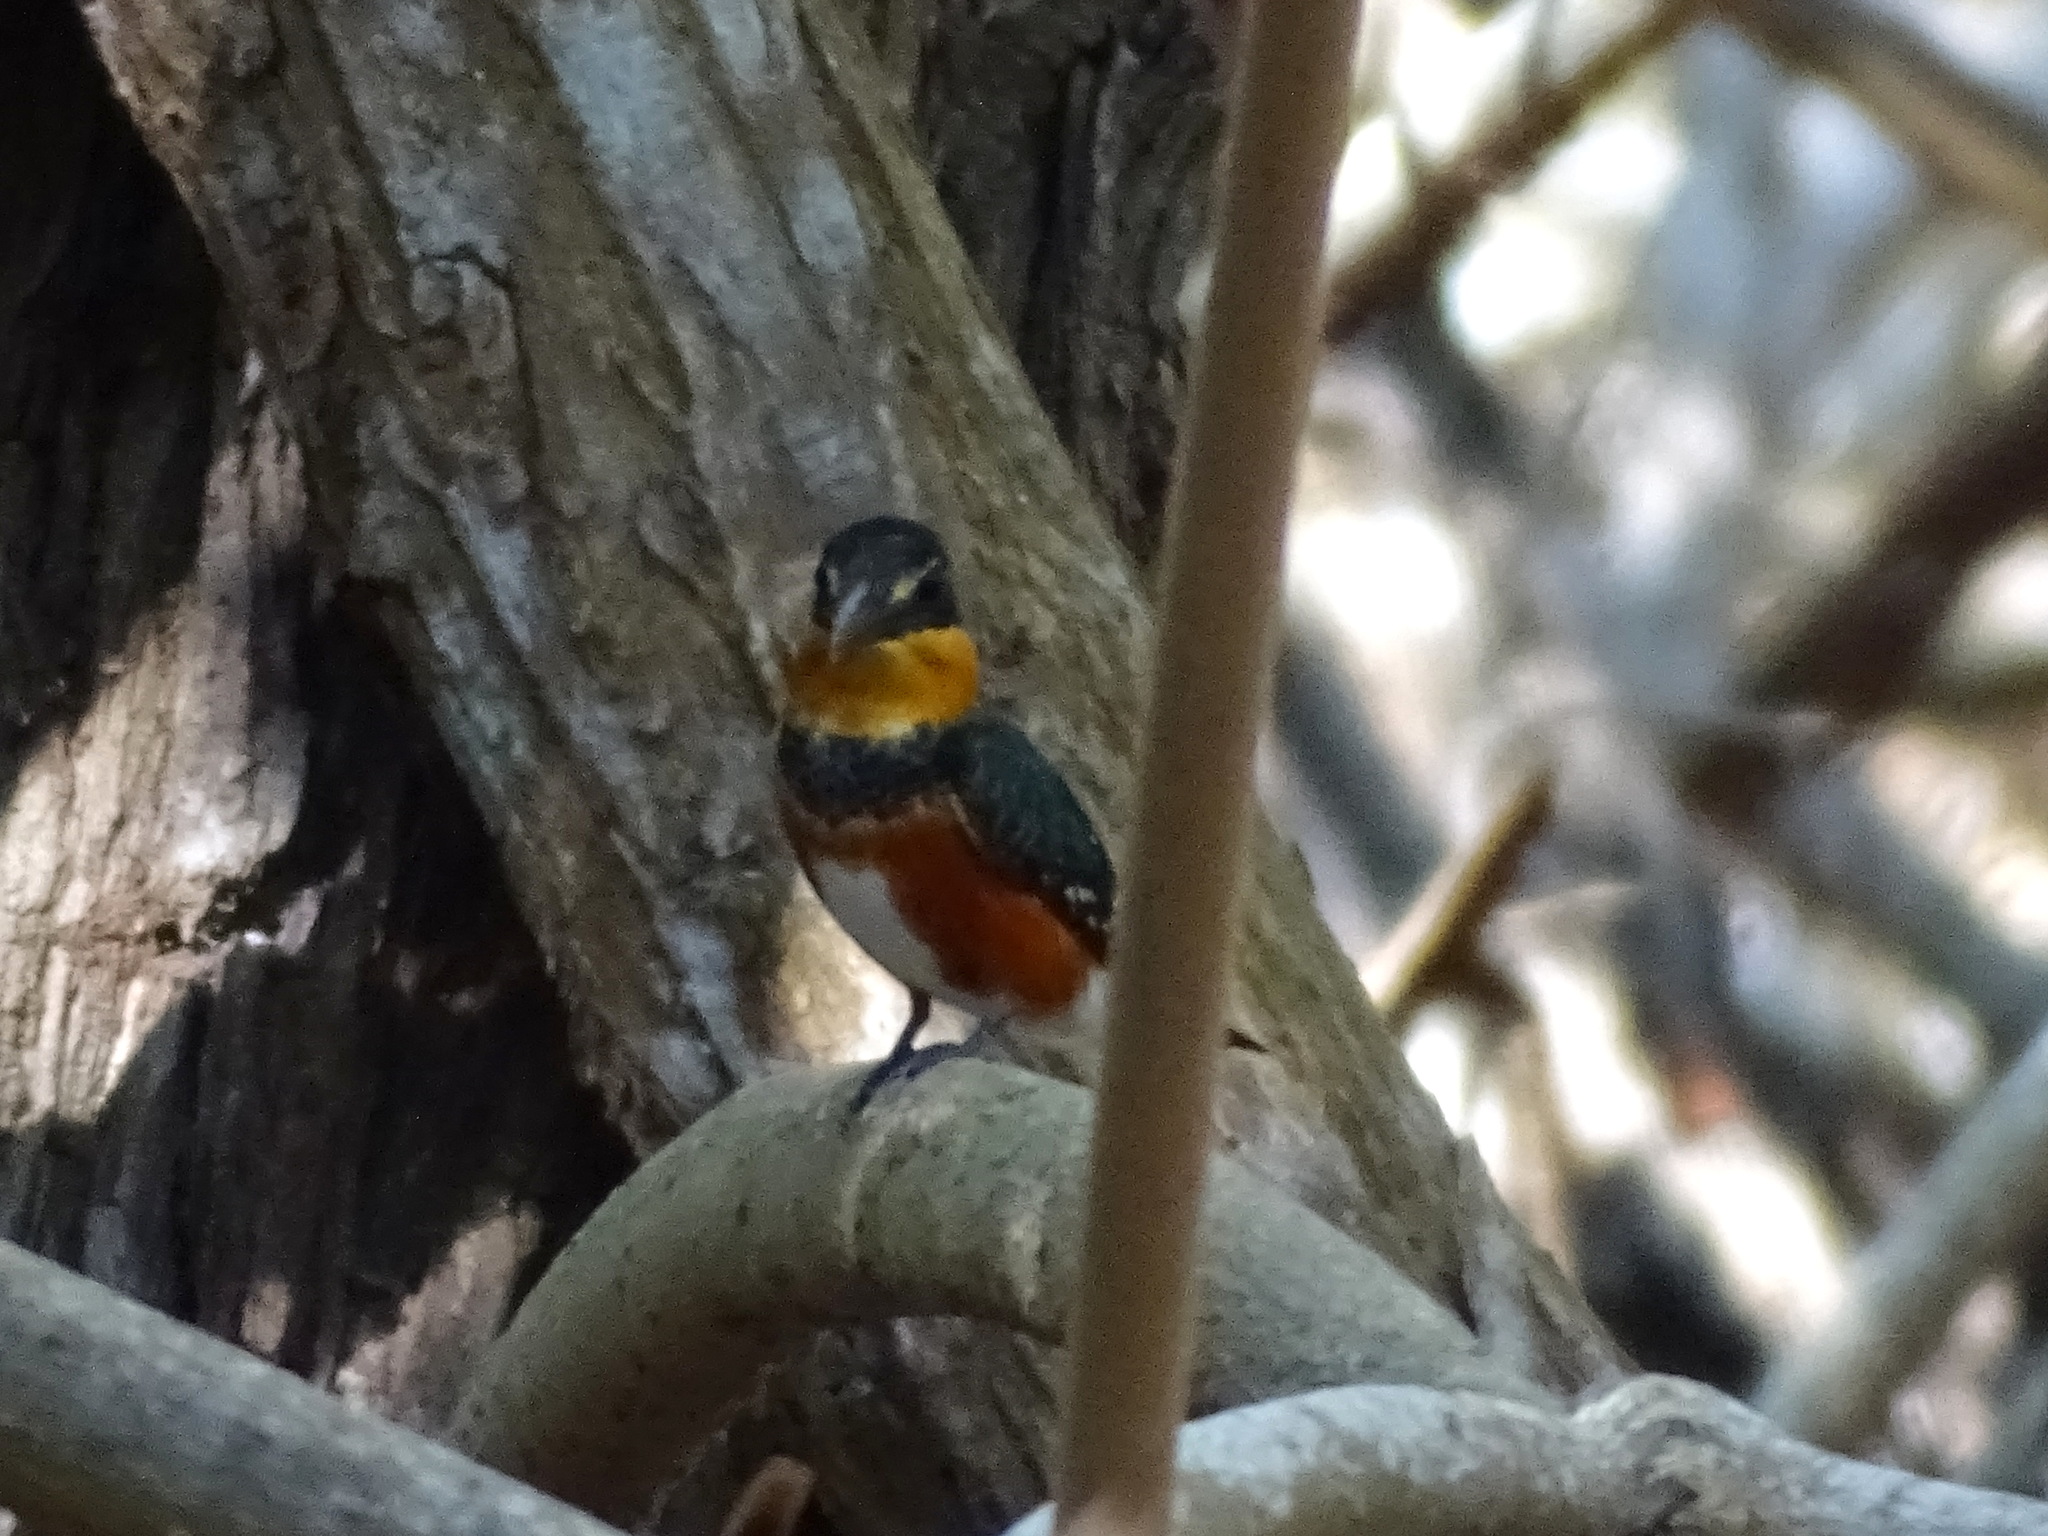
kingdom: Animalia
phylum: Chordata
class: Aves
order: Coraciiformes
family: Alcedinidae
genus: Chloroceryle
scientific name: Chloroceryle aenea
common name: American pygmy kingfisher
